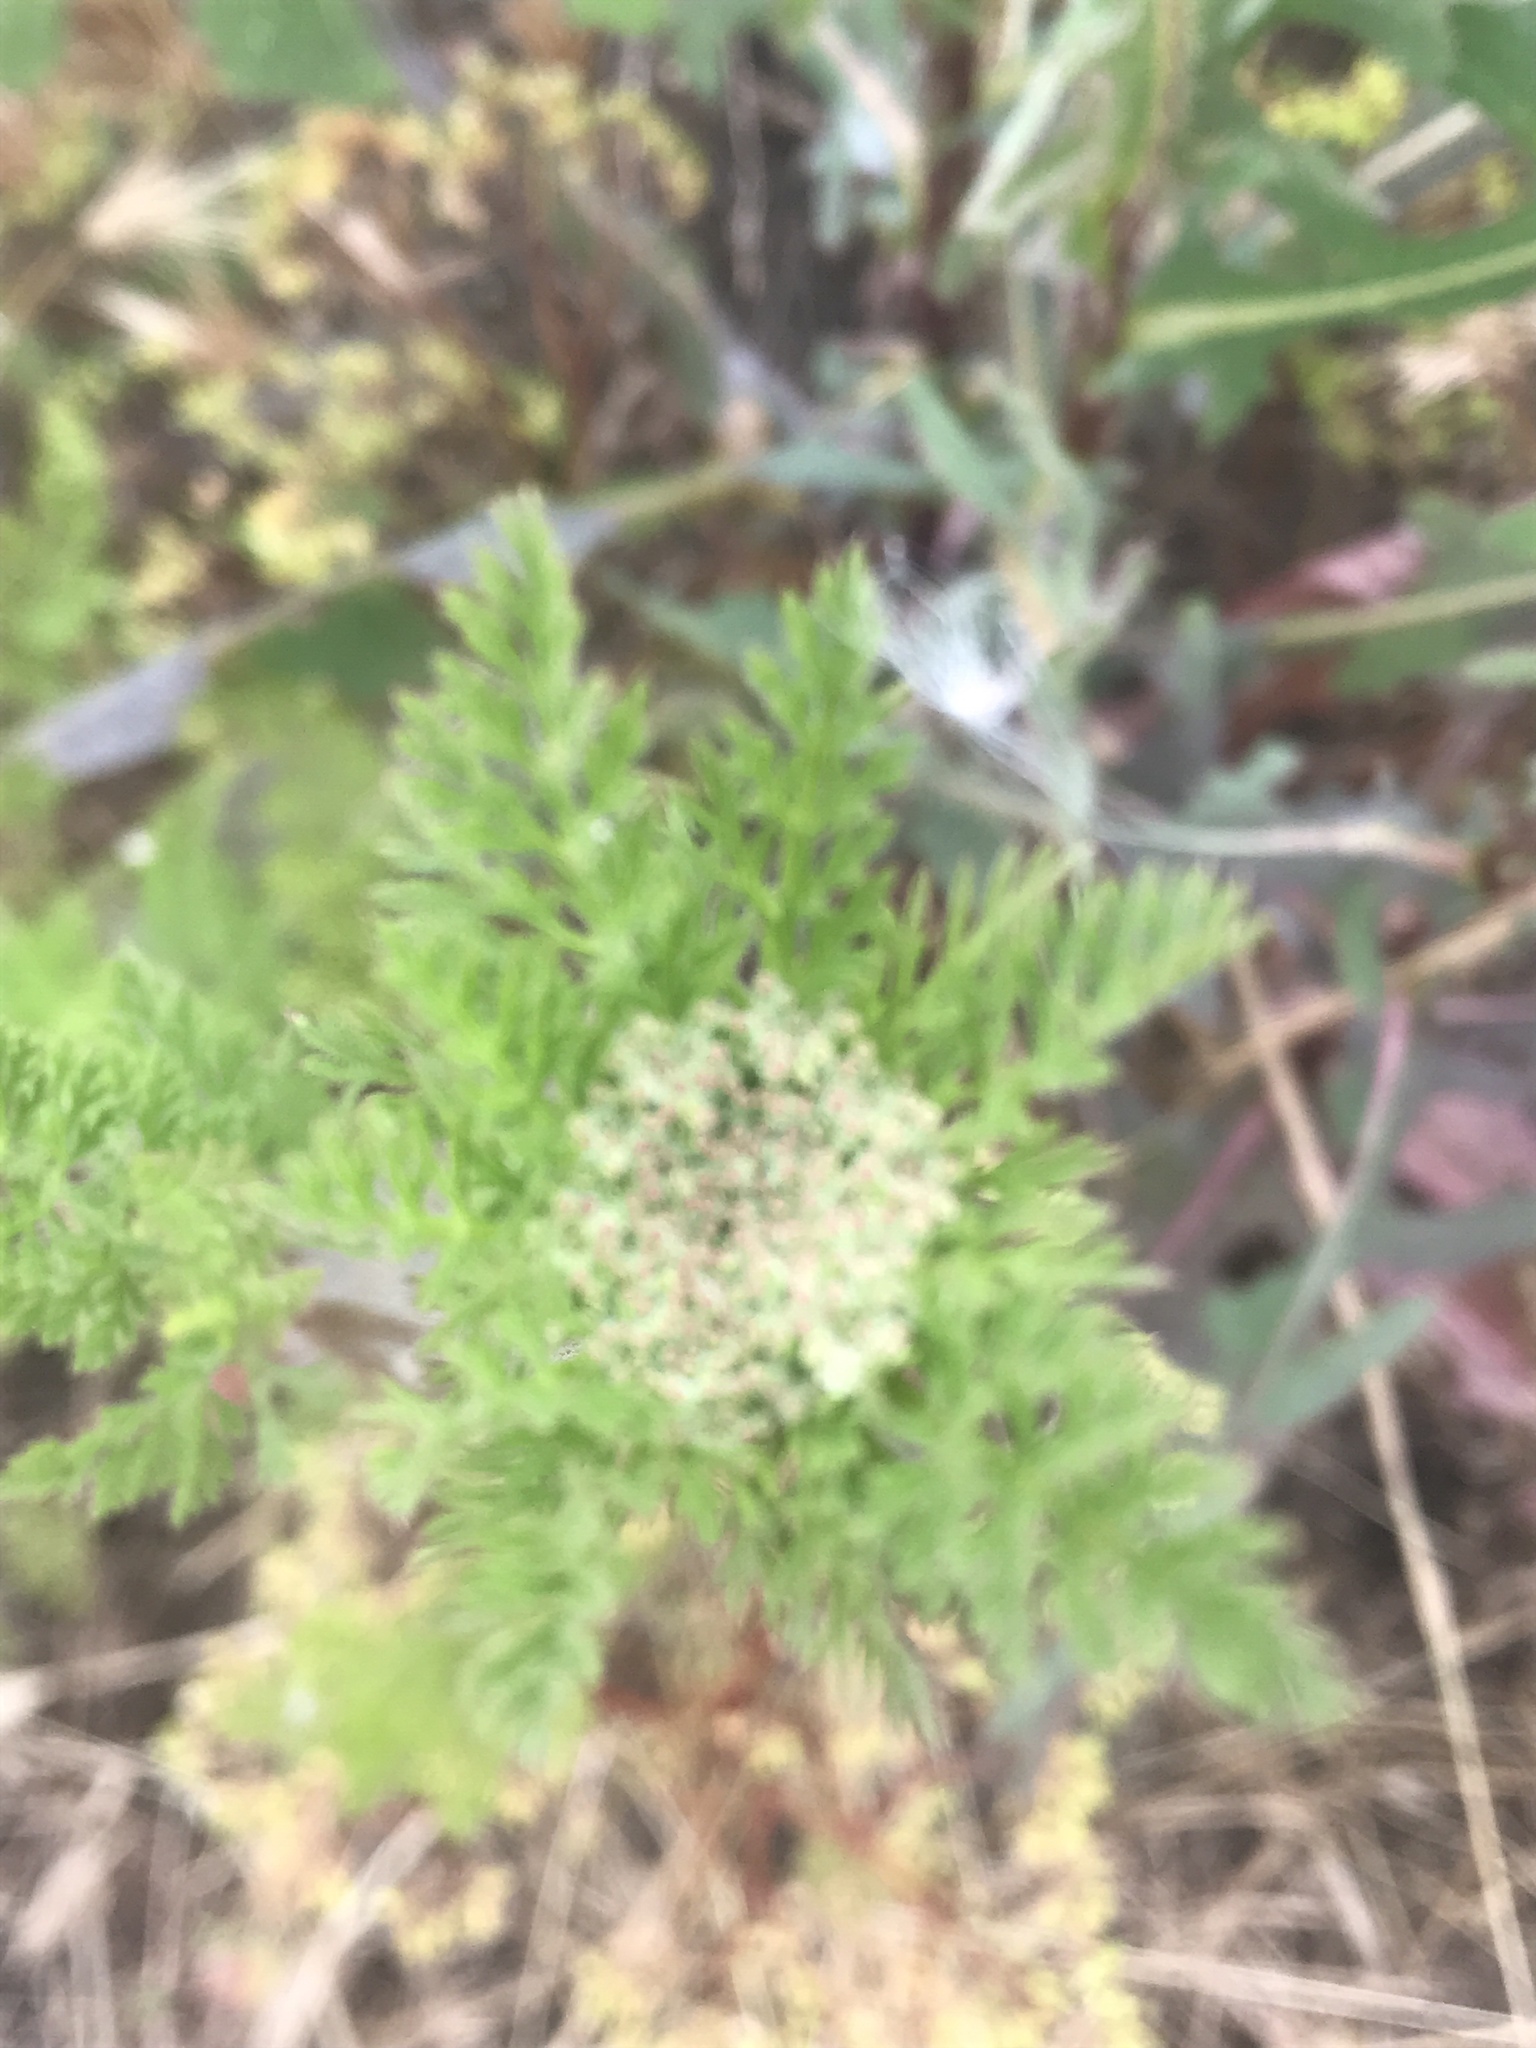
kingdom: Plantae
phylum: Tracheophyta
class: Magnoliopsida
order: Apiales
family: Apiaceae
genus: Daucus
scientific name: Daucus pusillus
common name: Southwest wild carrot
